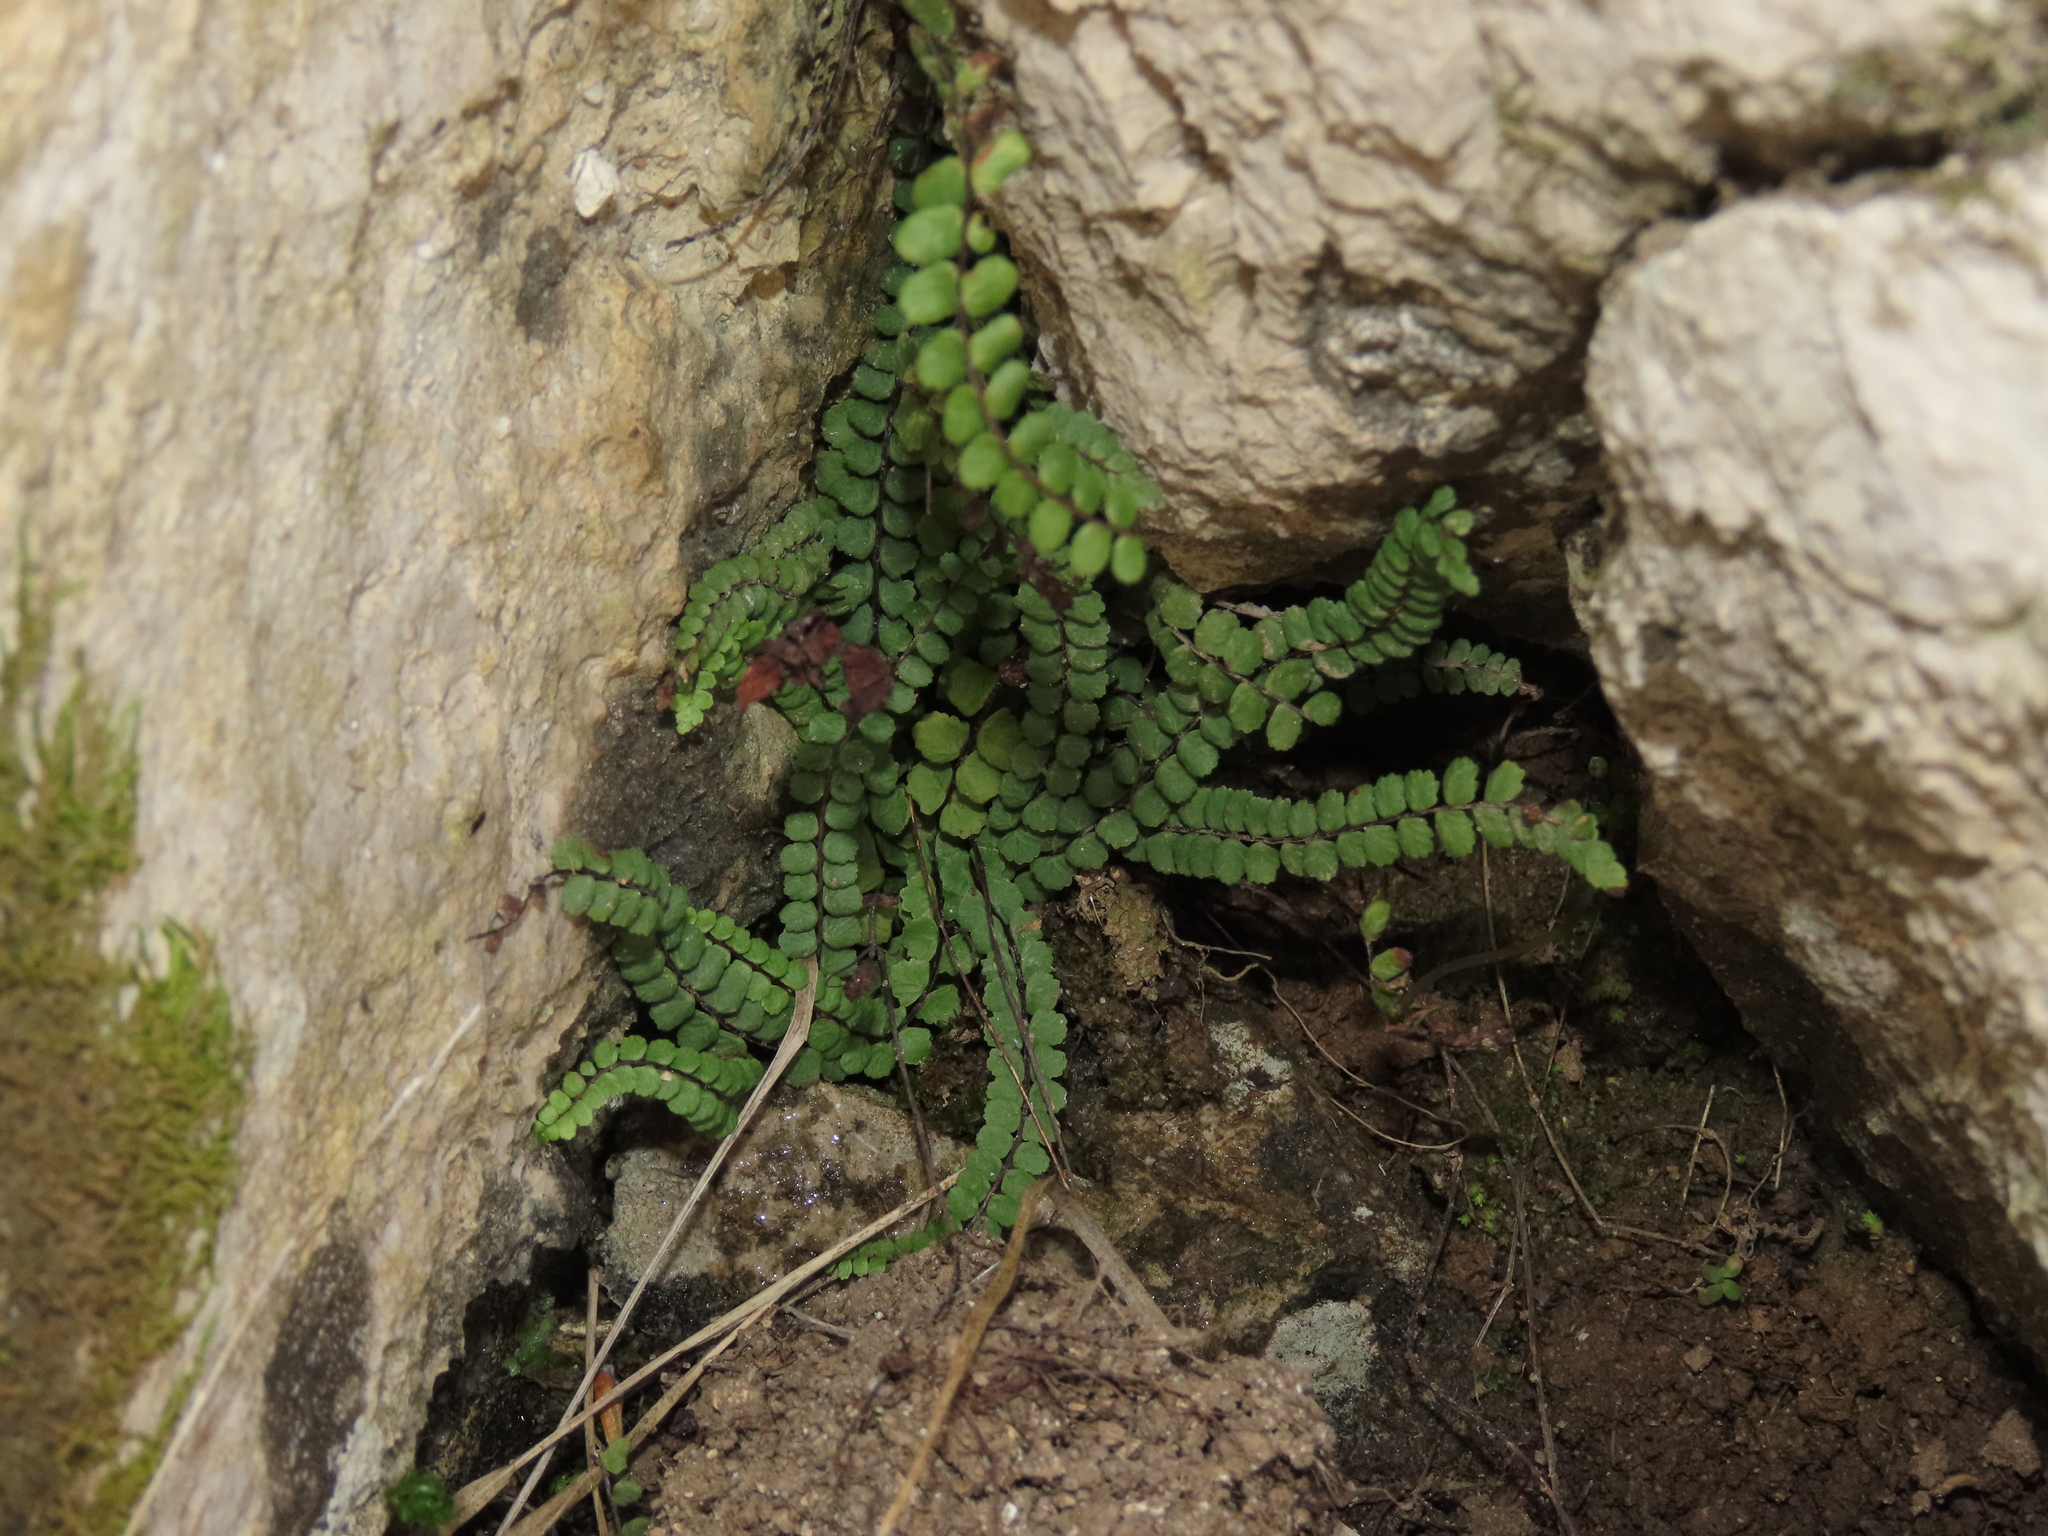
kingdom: Plantae
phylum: Tracheophyta
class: Polypodiopsida
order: Polypodiales
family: Aspleniaceae
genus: Asplenium
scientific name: Asplenium trichomanes
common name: Maidenhair spleenwort
